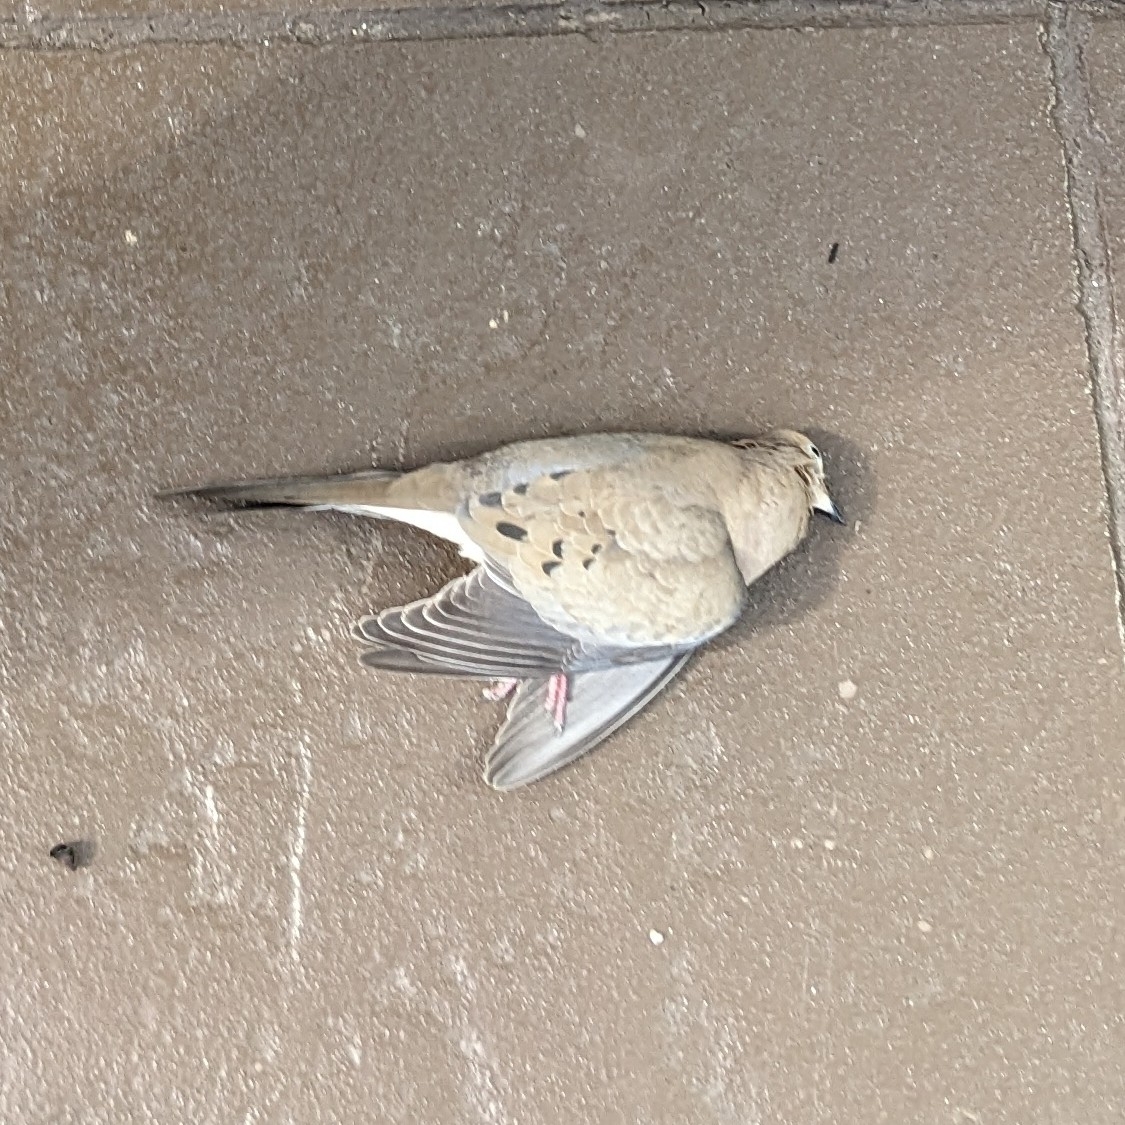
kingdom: Animalia
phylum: Chordata
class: Aves
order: Columbiformes
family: Columbidae
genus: Zenaida
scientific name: Zenaida macroura
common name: Mourning dove
